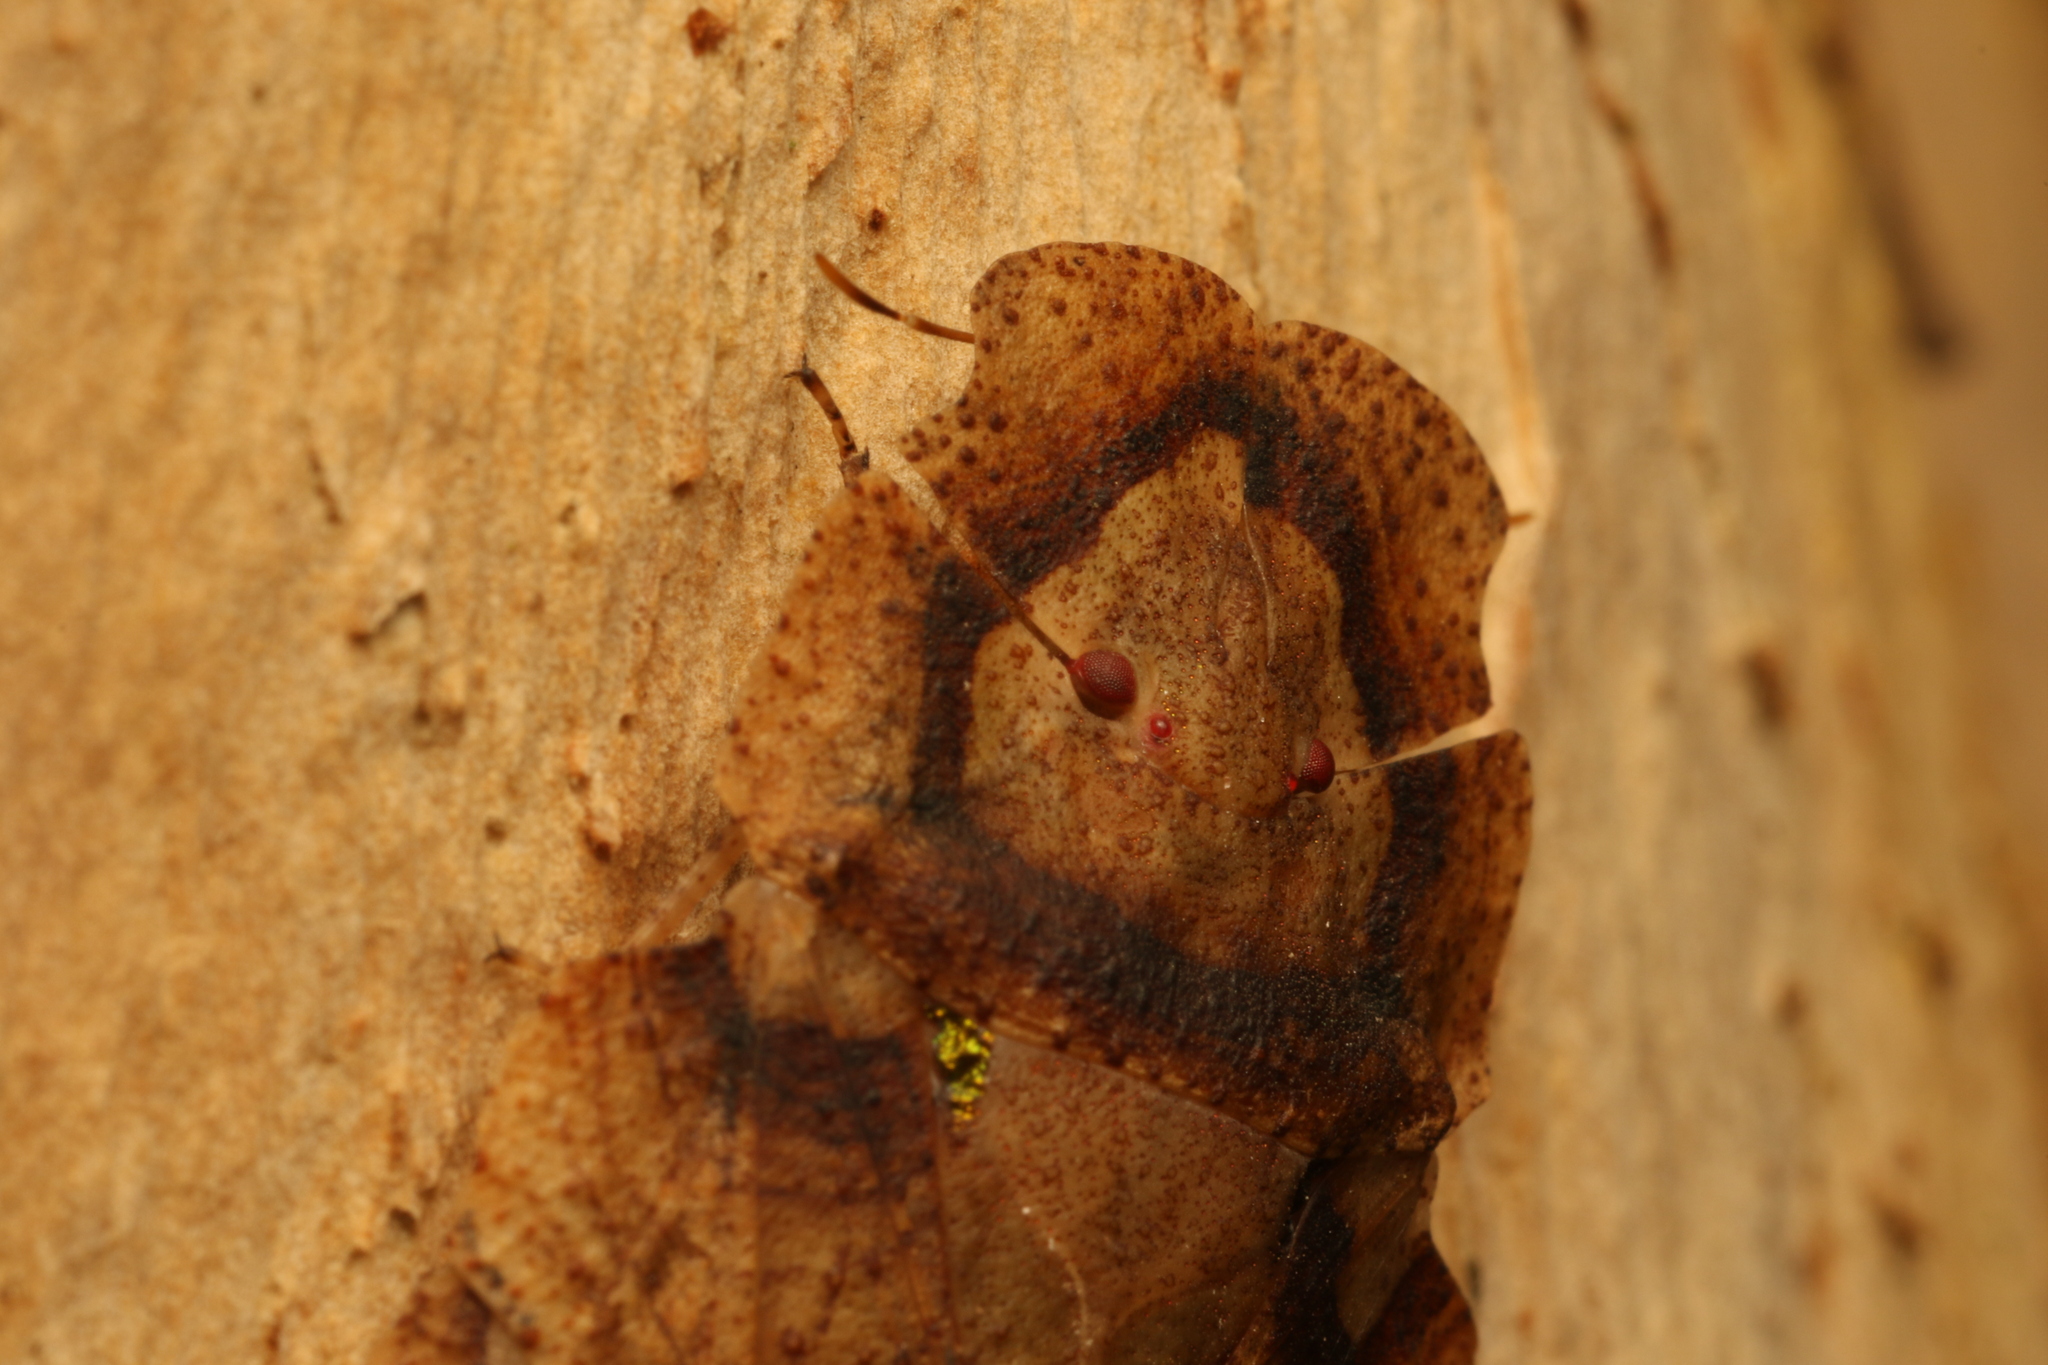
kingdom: Animalia
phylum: Arthropoda
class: Insecta
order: Hemiptera
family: Phleides
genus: Phloea
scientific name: Phloea
